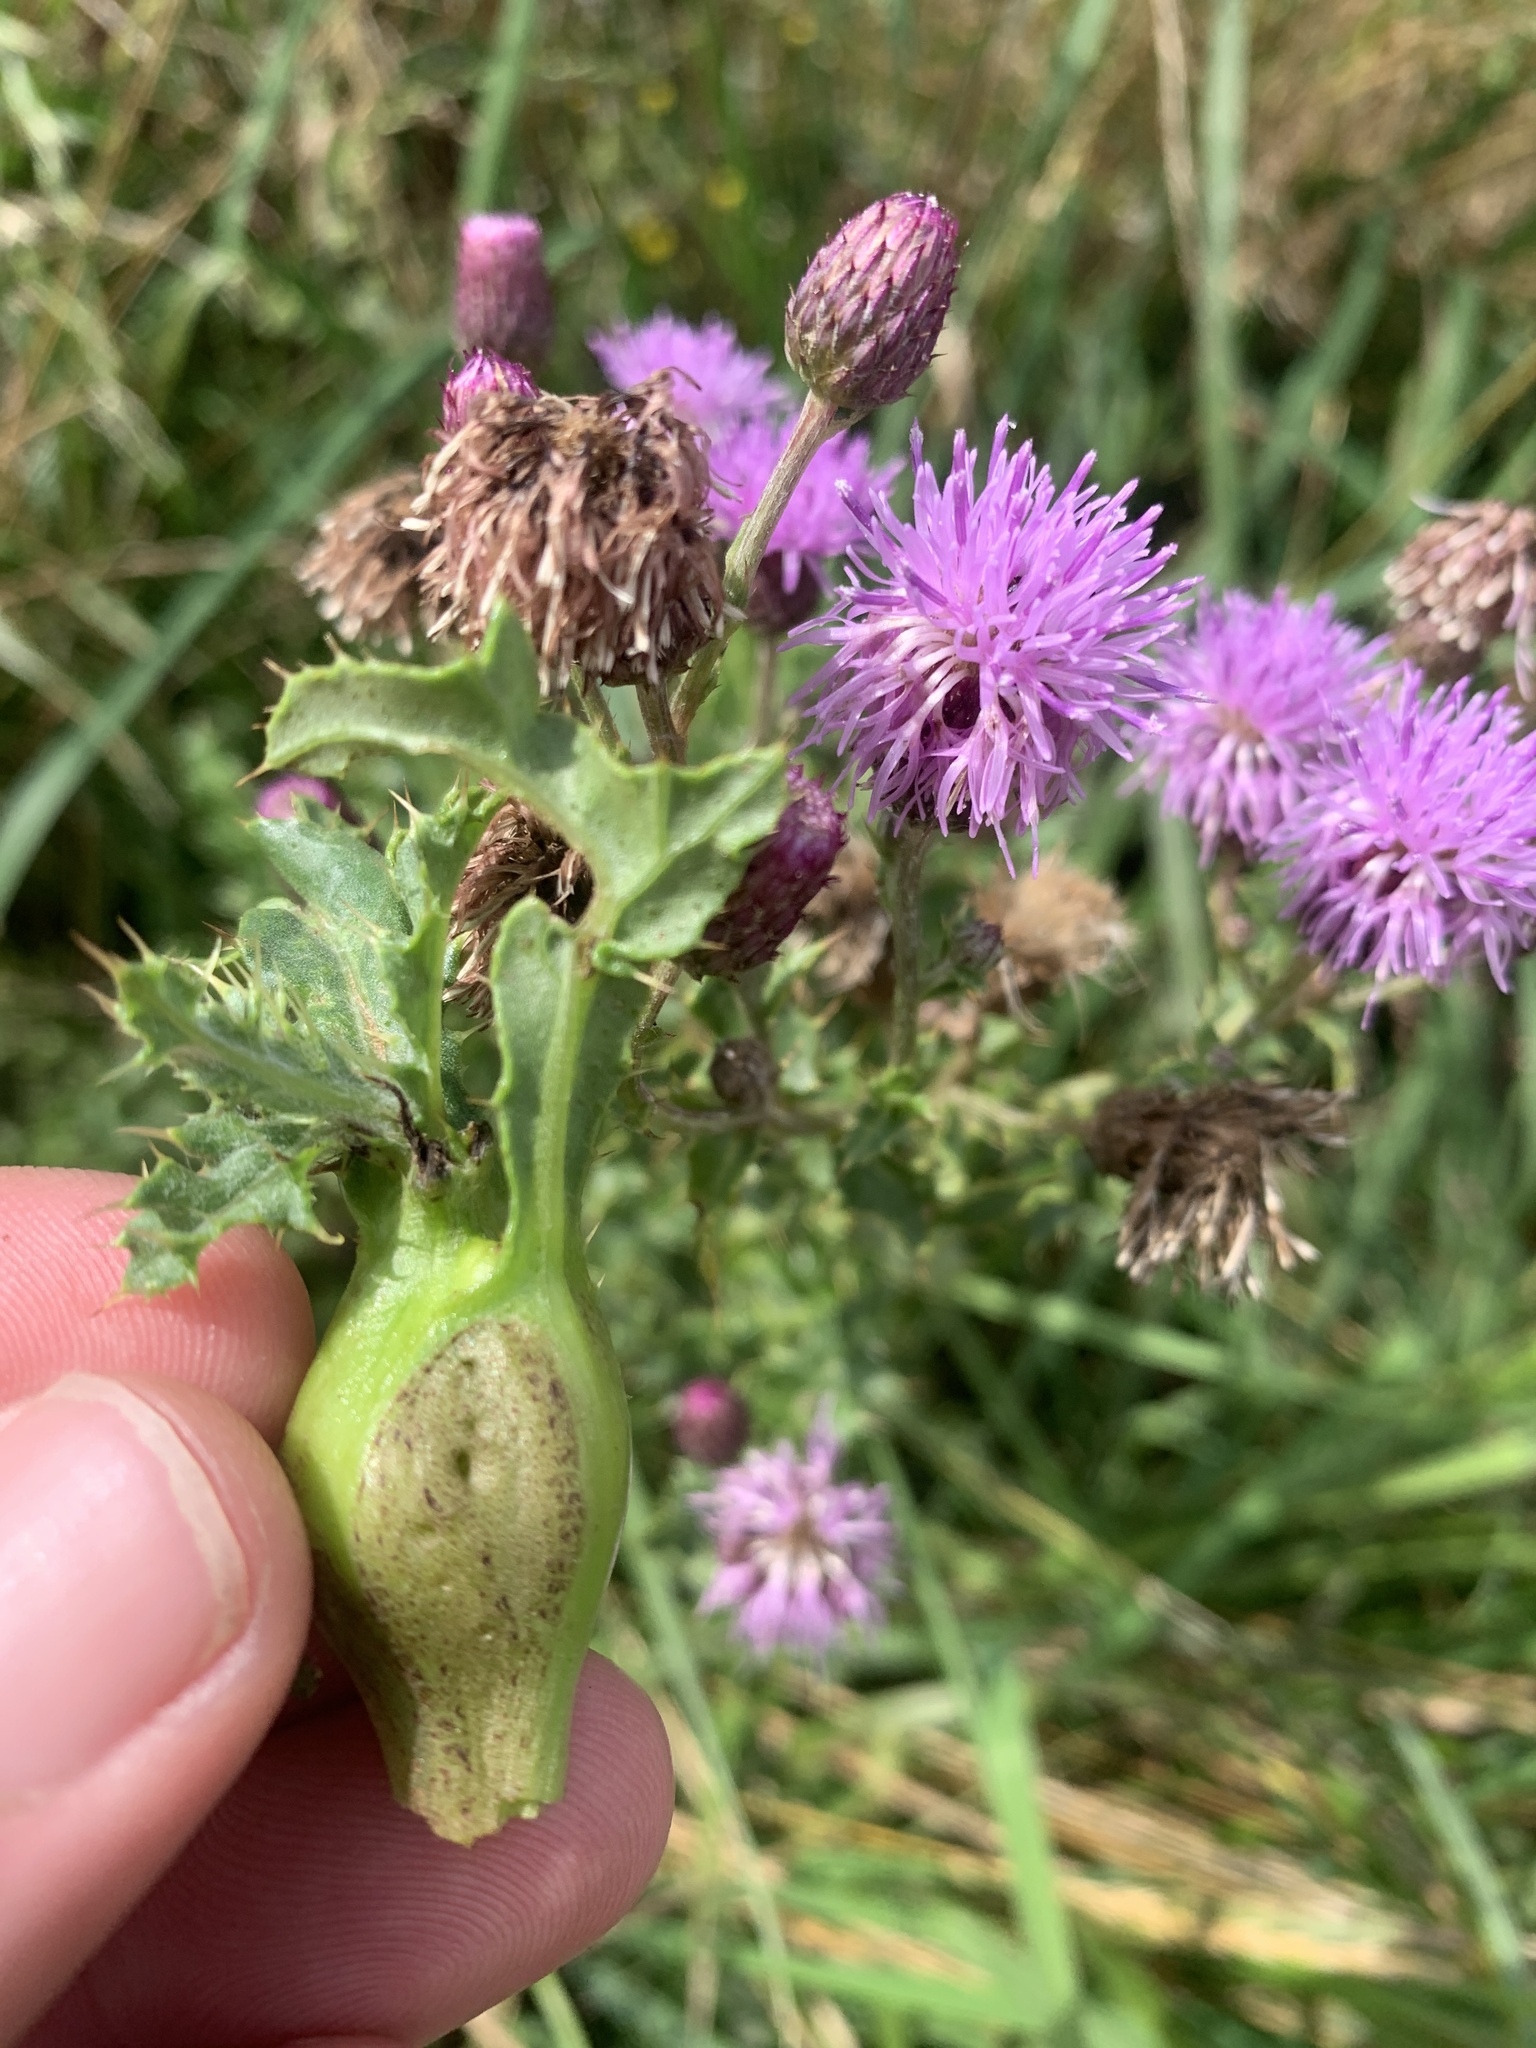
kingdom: Plantae
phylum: Tracheophyta
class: Magnoliopsida
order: Asterales
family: Asteraceae
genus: Cirsium
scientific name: Cirsium arvense
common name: Creeping thistle
